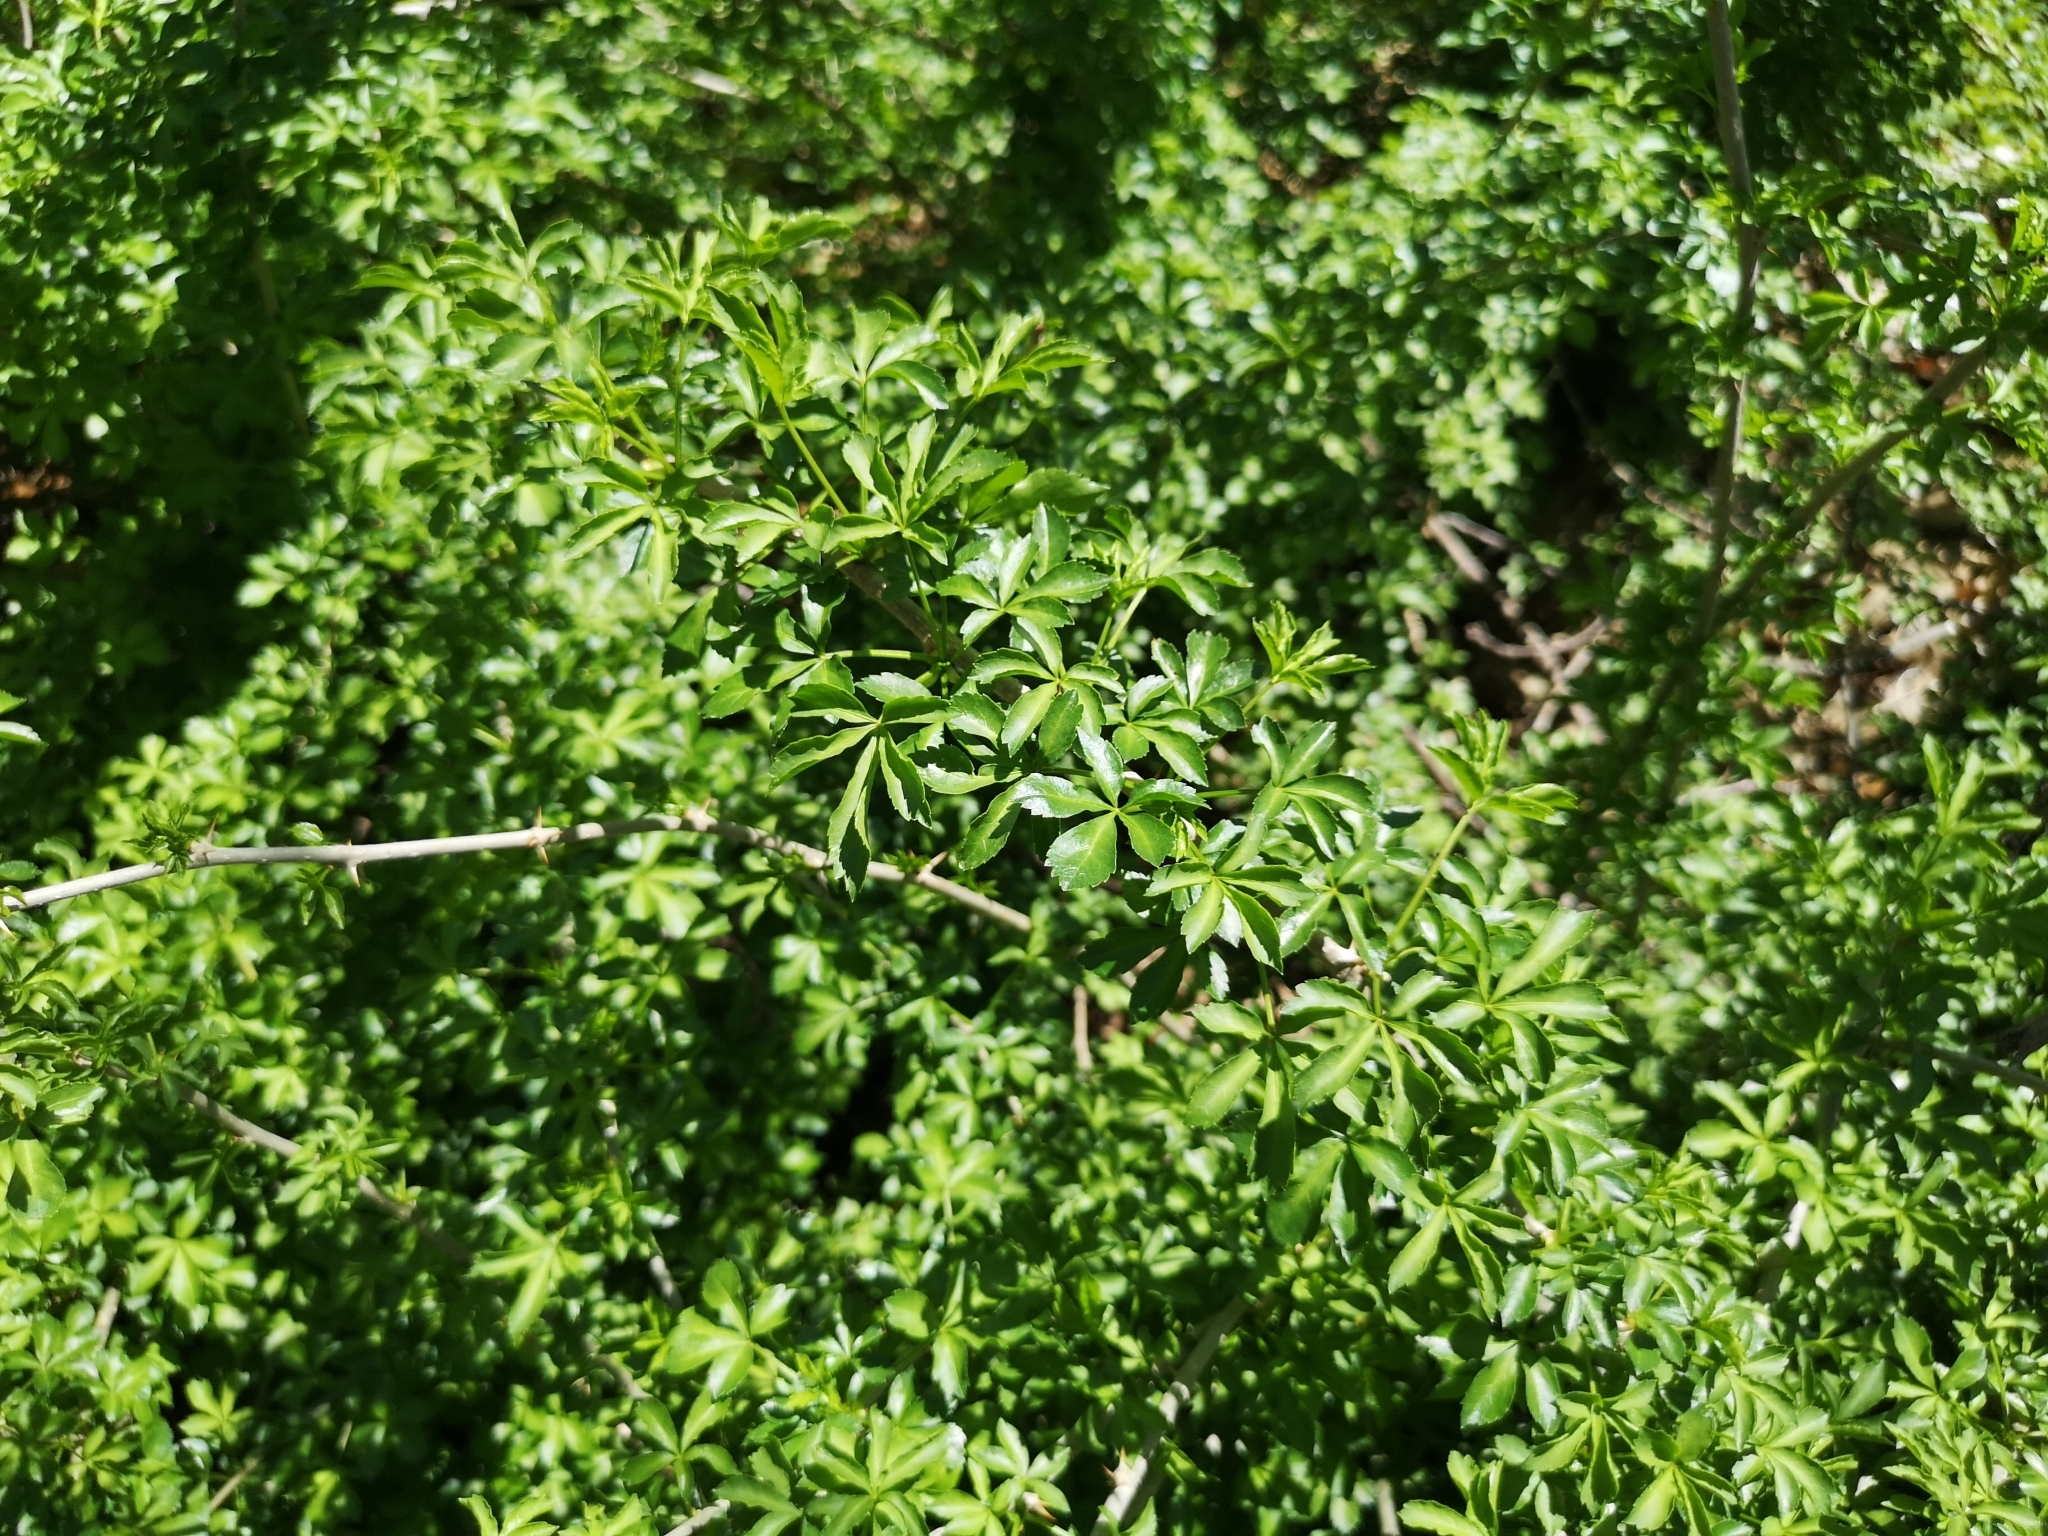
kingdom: Plantae
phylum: Tracheophyta
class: Magnoliopsida
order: Apiales
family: Araliaceae
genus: Eleutherococcus
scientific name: Eleutherococcus sieboldianus
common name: Ginseng
